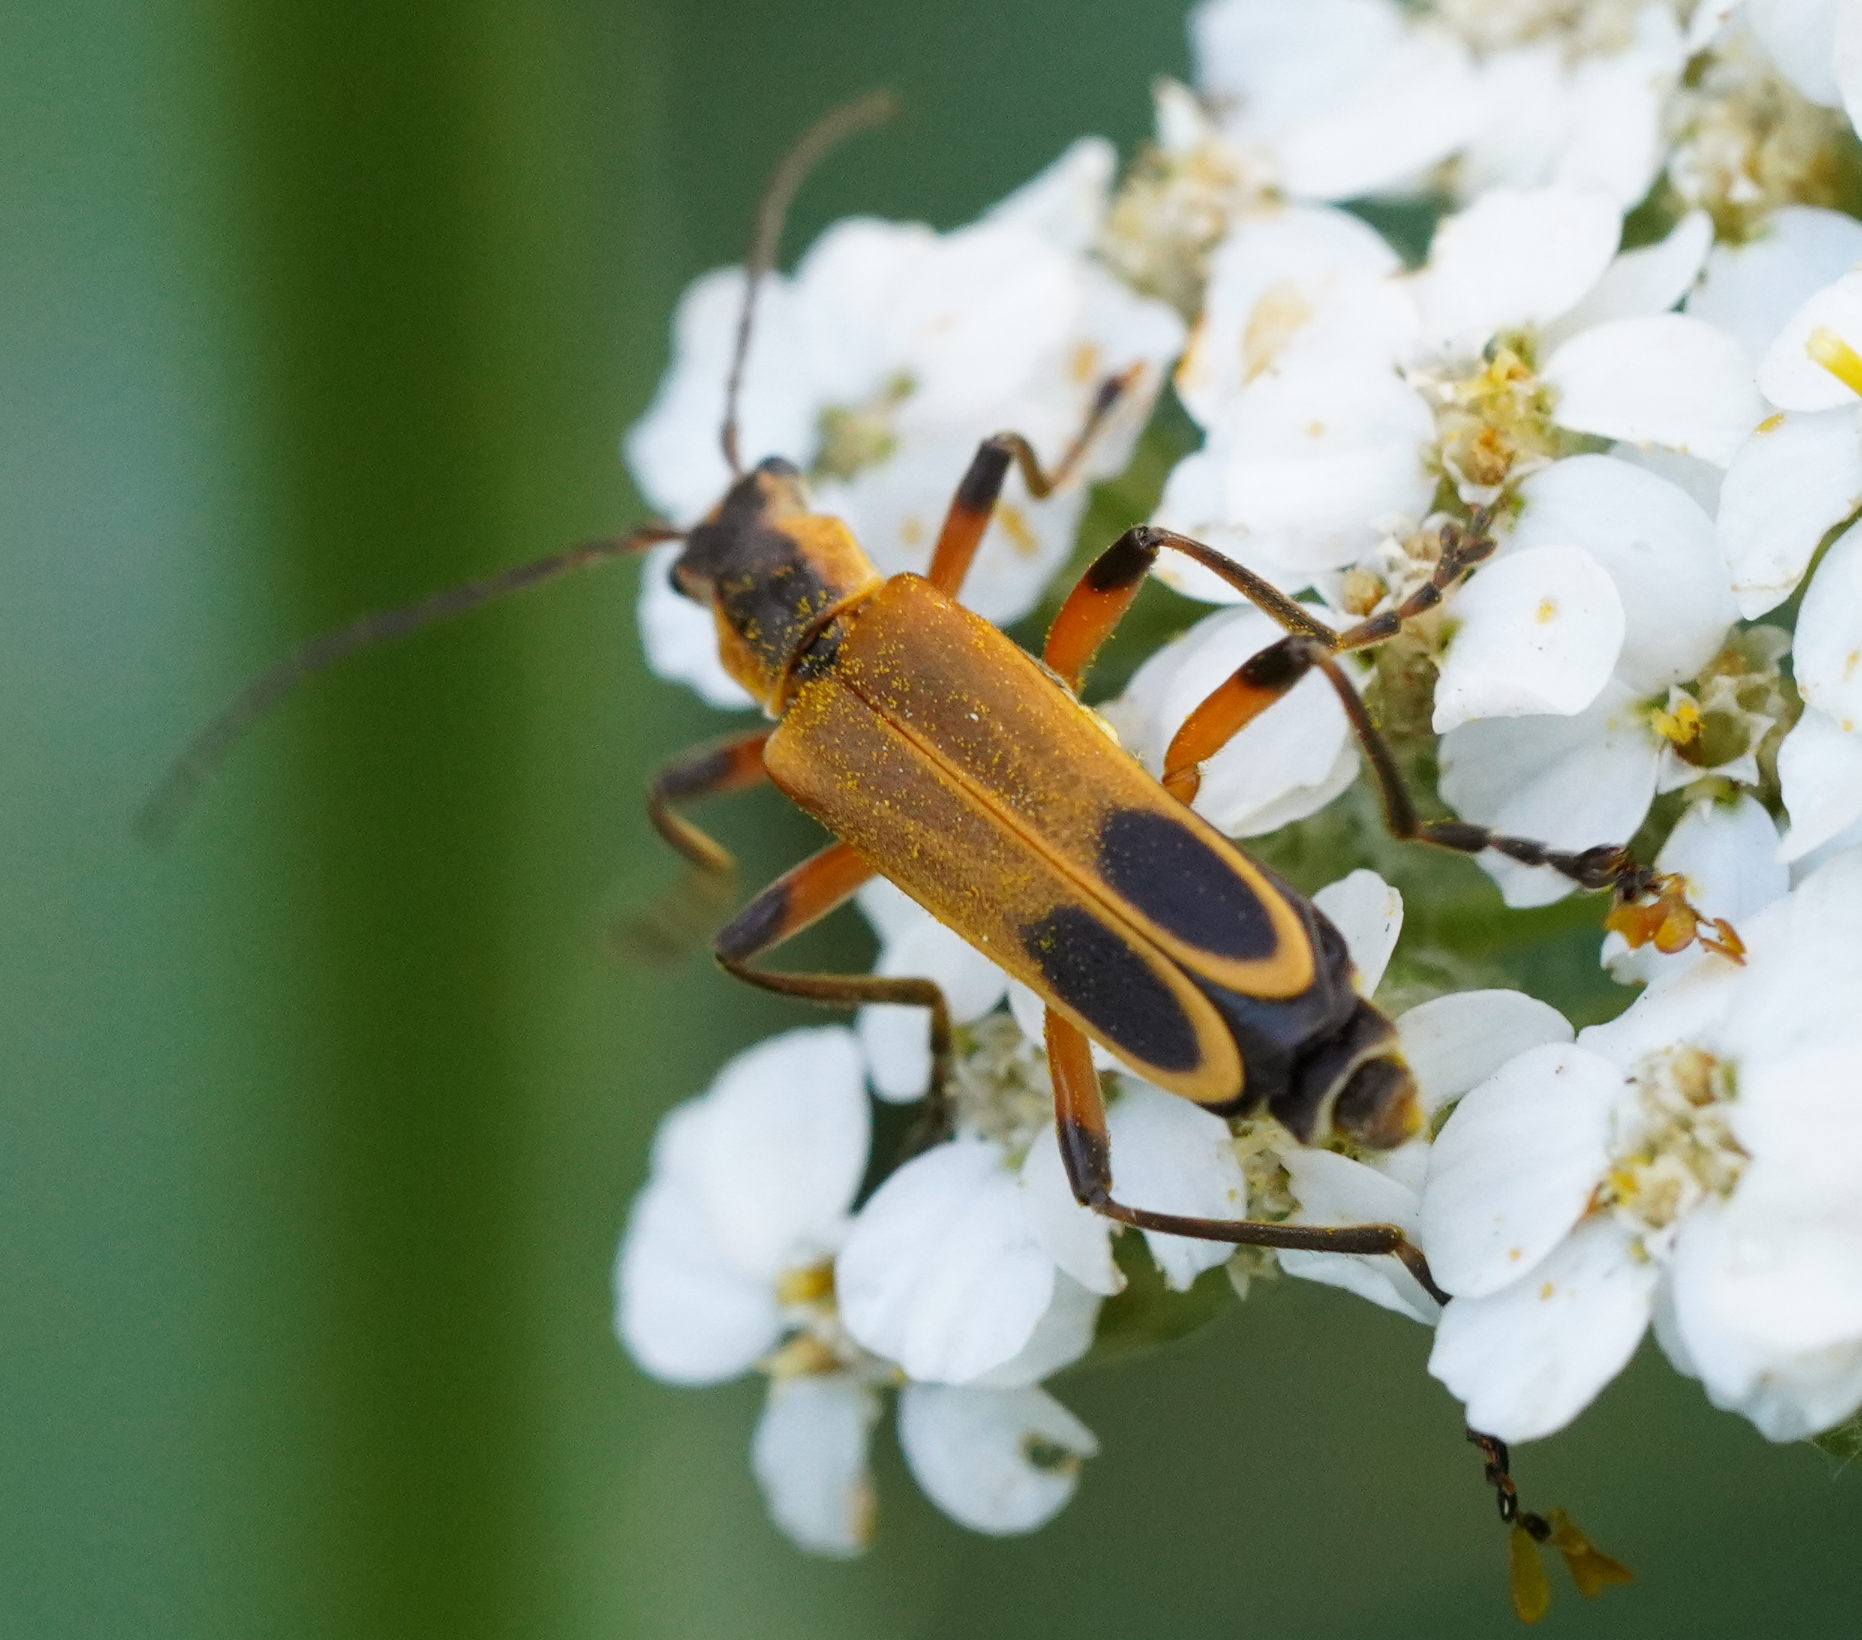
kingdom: Animalia
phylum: Arthropoda
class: Insecta
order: Coleoptera
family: Cantharidae
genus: Chauliognathus
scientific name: Chauliognathus marginatus
